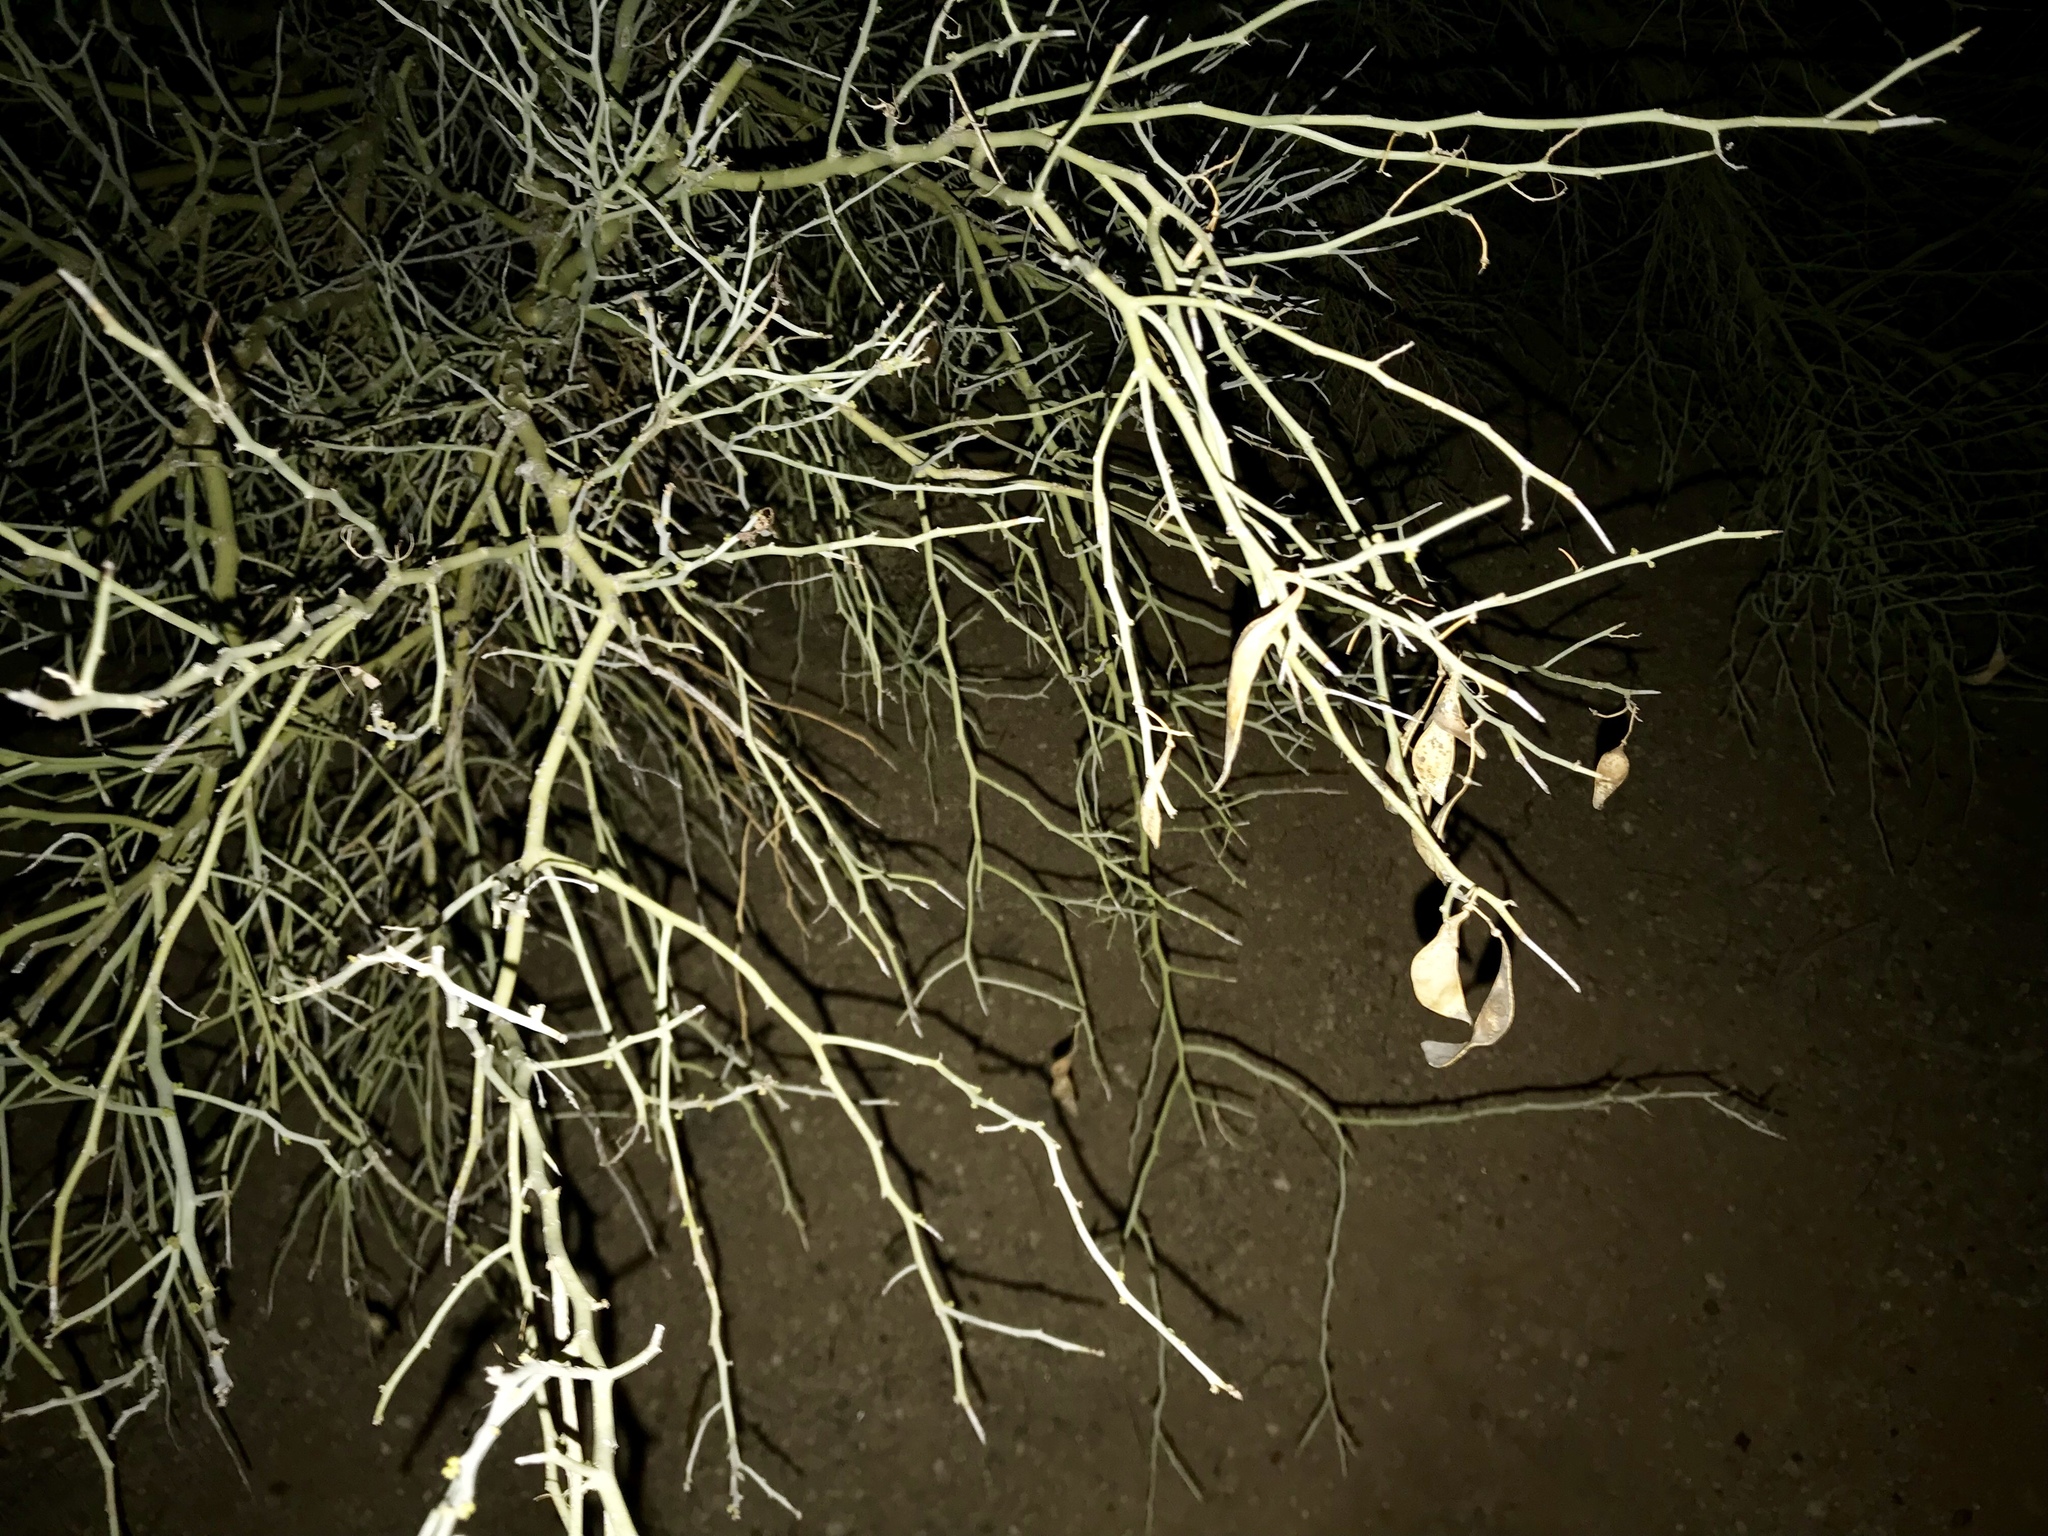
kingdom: Plantae
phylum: Tracheophyta
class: Magnoliopsida
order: Fabales
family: Fabaceae
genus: Parkinsonia
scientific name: Parkinsonia florida
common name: Blue paloverde
